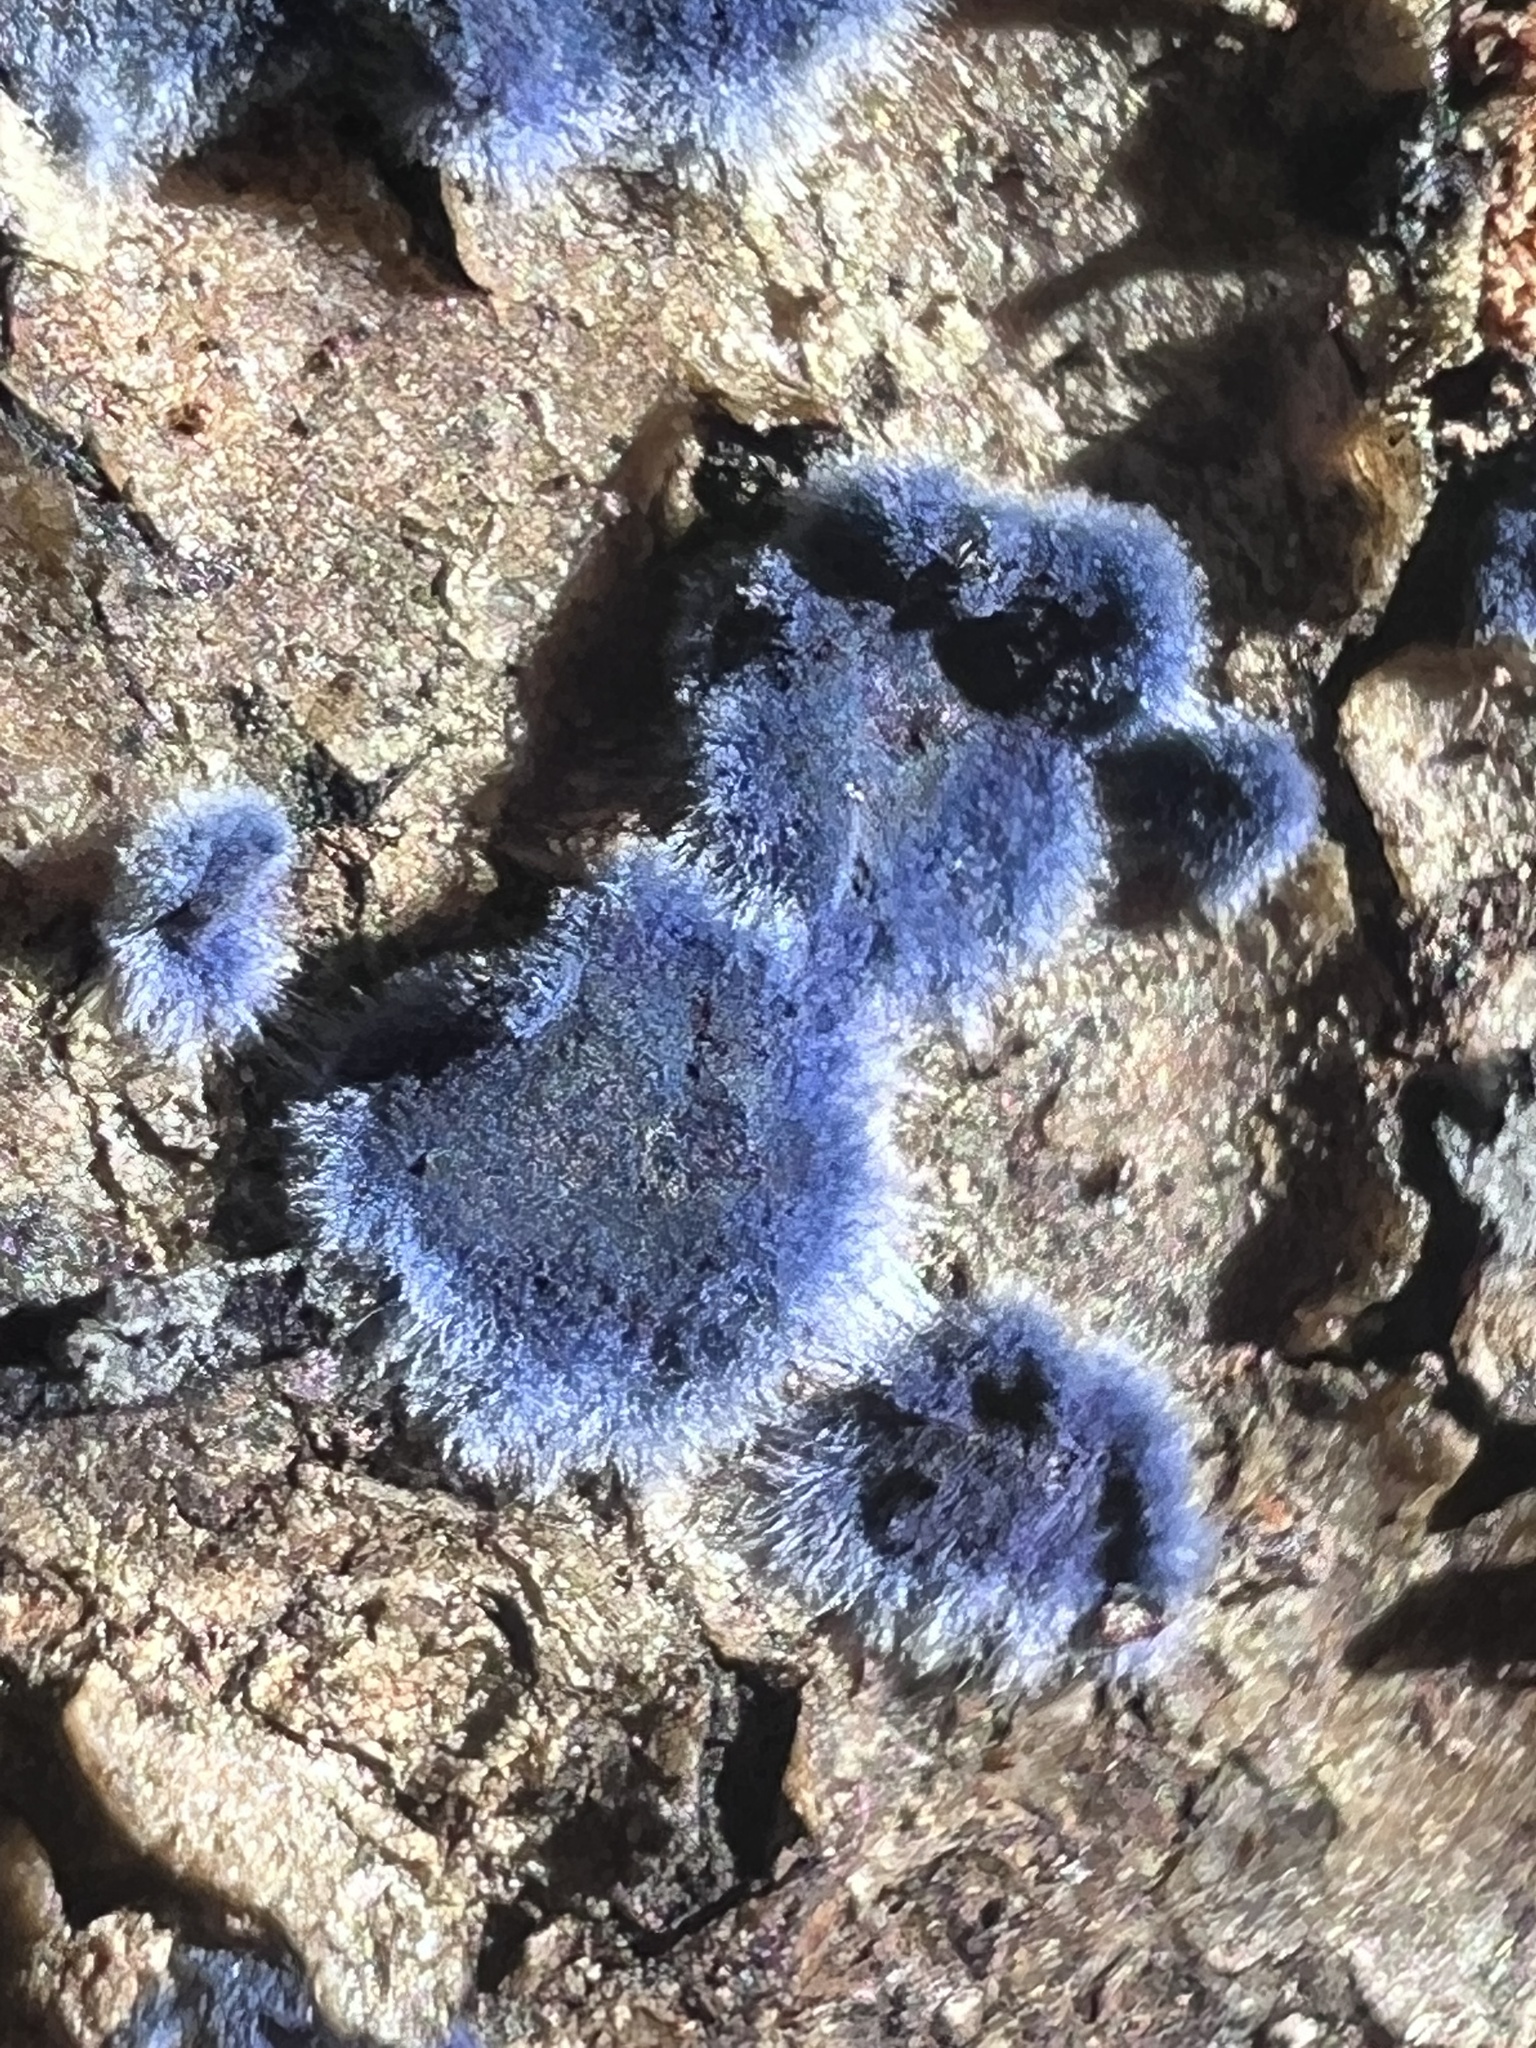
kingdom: Fungi
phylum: Basidiomycota
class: Agaricomycetes
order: Polyporales
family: Phanerochaetaceae
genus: Terana
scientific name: Terana coerulea
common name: Cobalt crust
